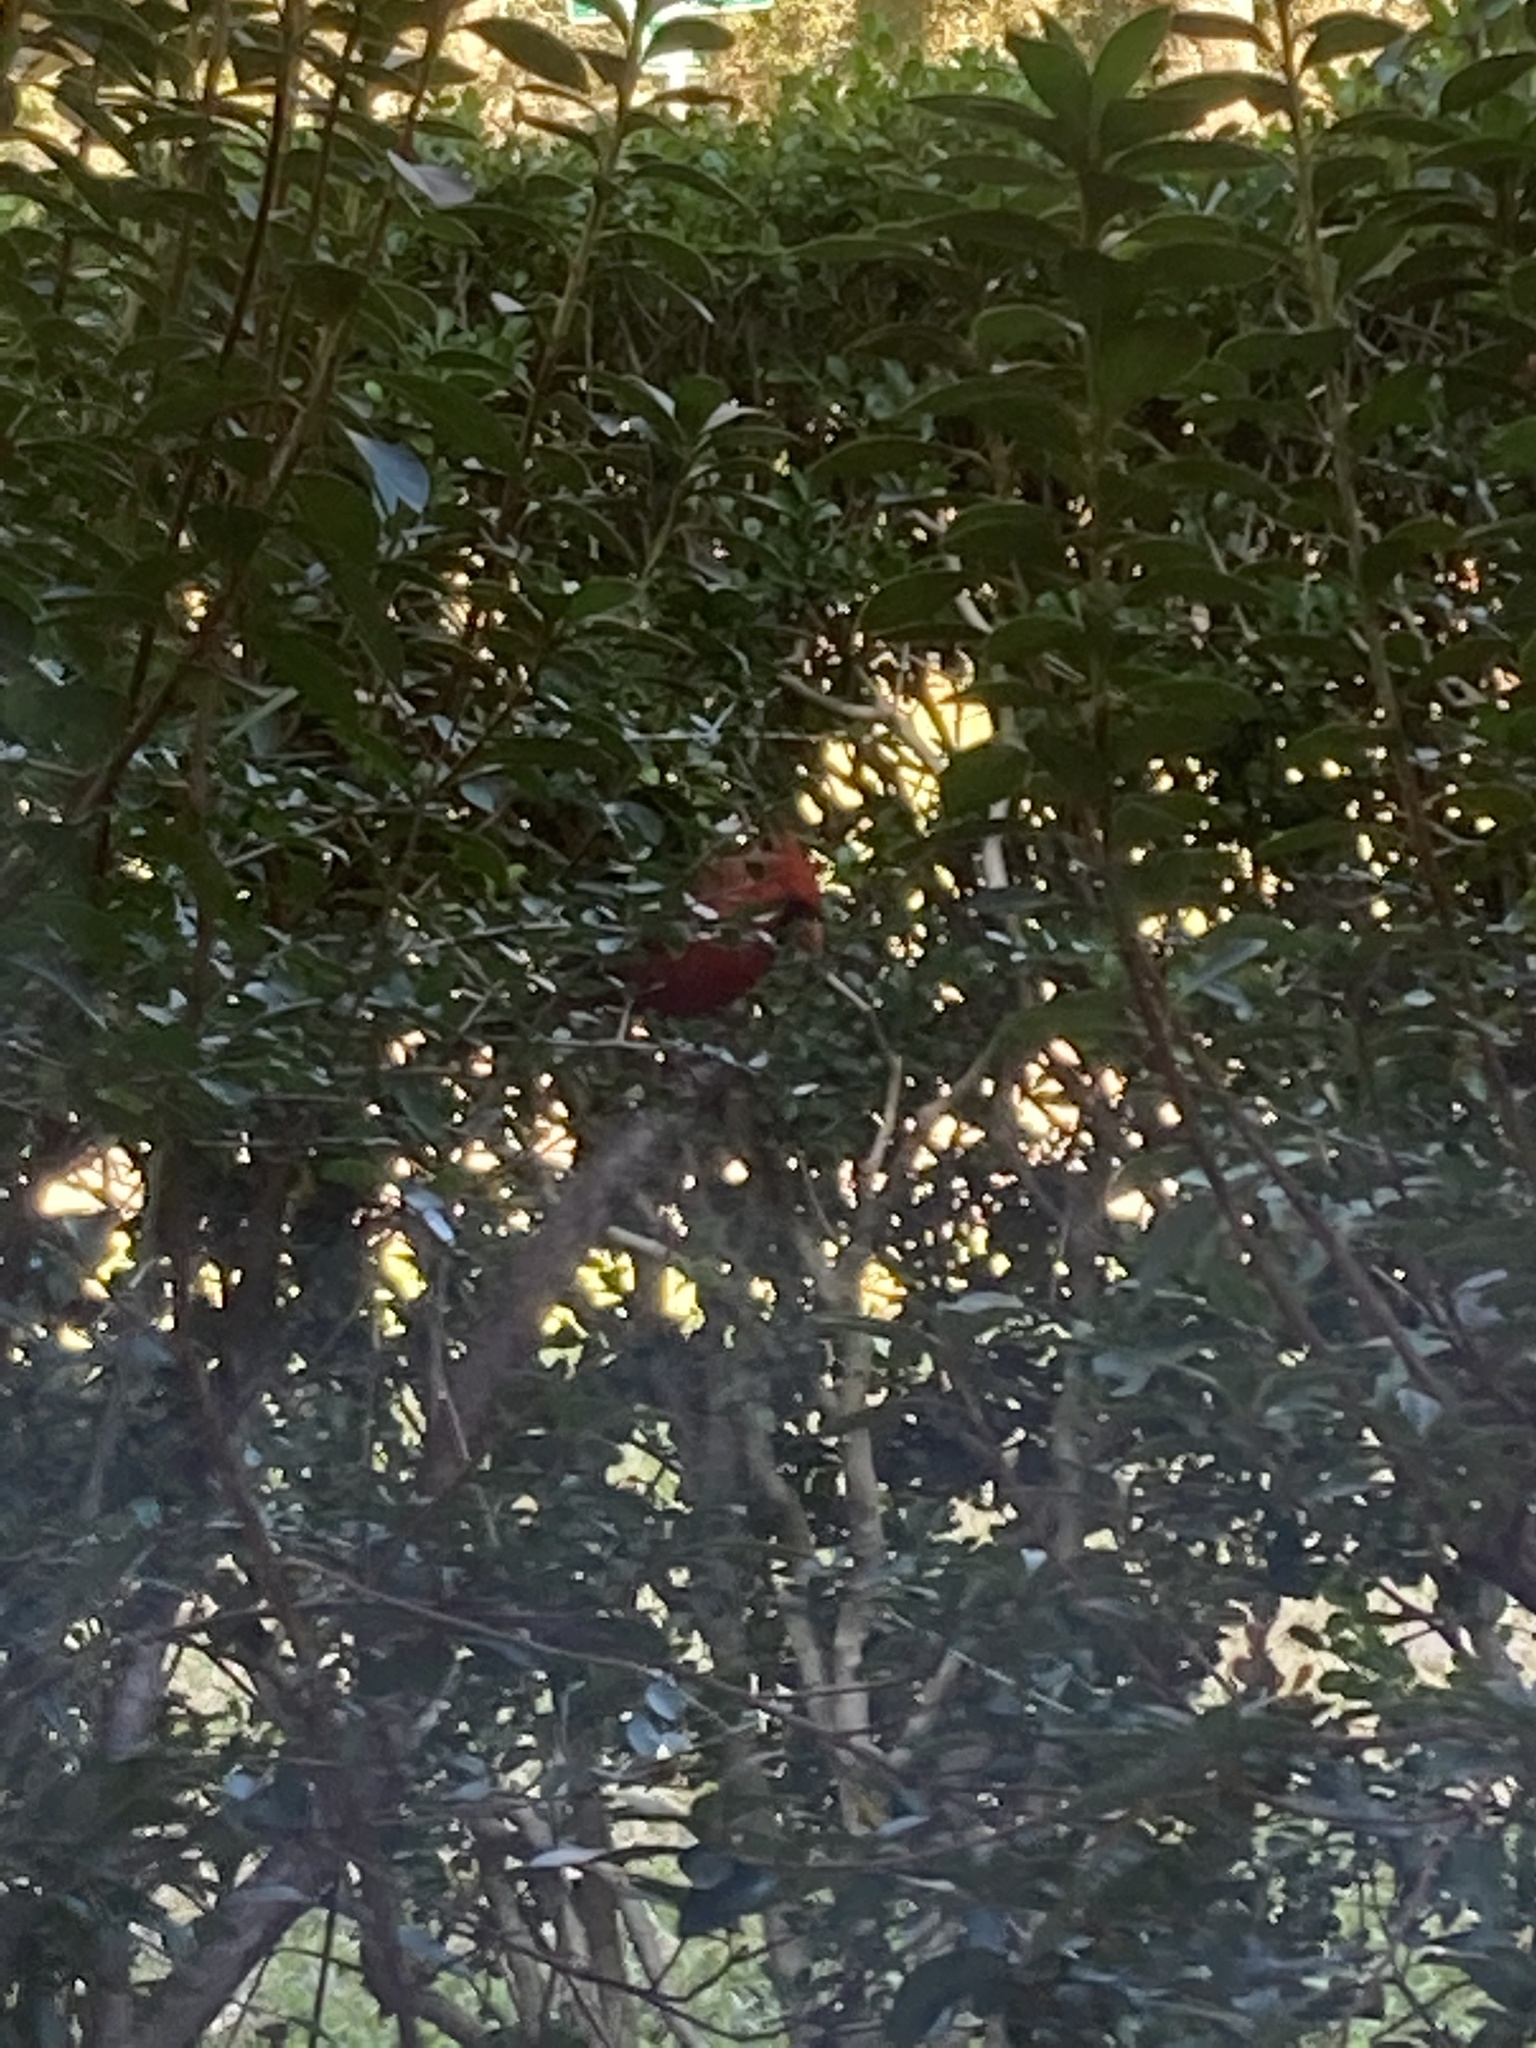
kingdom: Animalia
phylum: Chordata
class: Aves
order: Passeriformes
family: Cardinalidae
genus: Cardinalis
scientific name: Cardinalis cardinalis
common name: Northern cardinal
